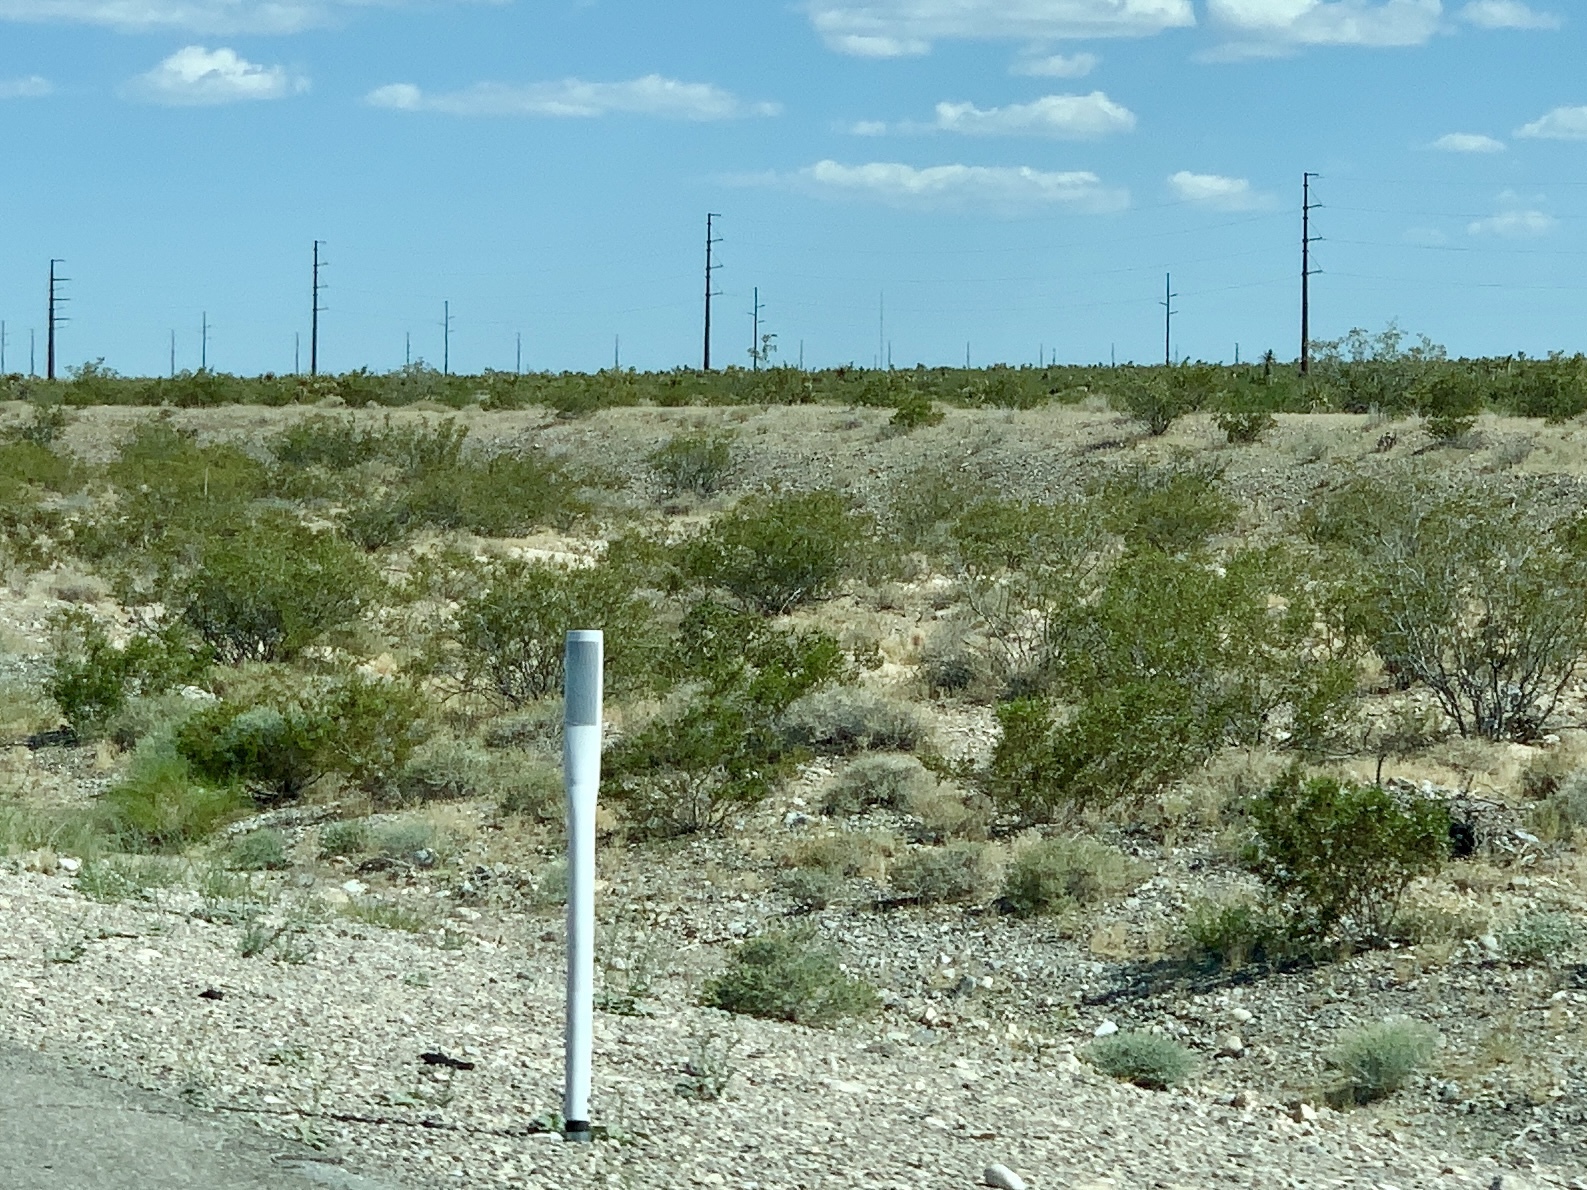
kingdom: Plantae
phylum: Tracheophyta
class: Magnoliopsida
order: Zygophyllales
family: Zygophyllaceae
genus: Larrea
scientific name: Larrea tridentata
